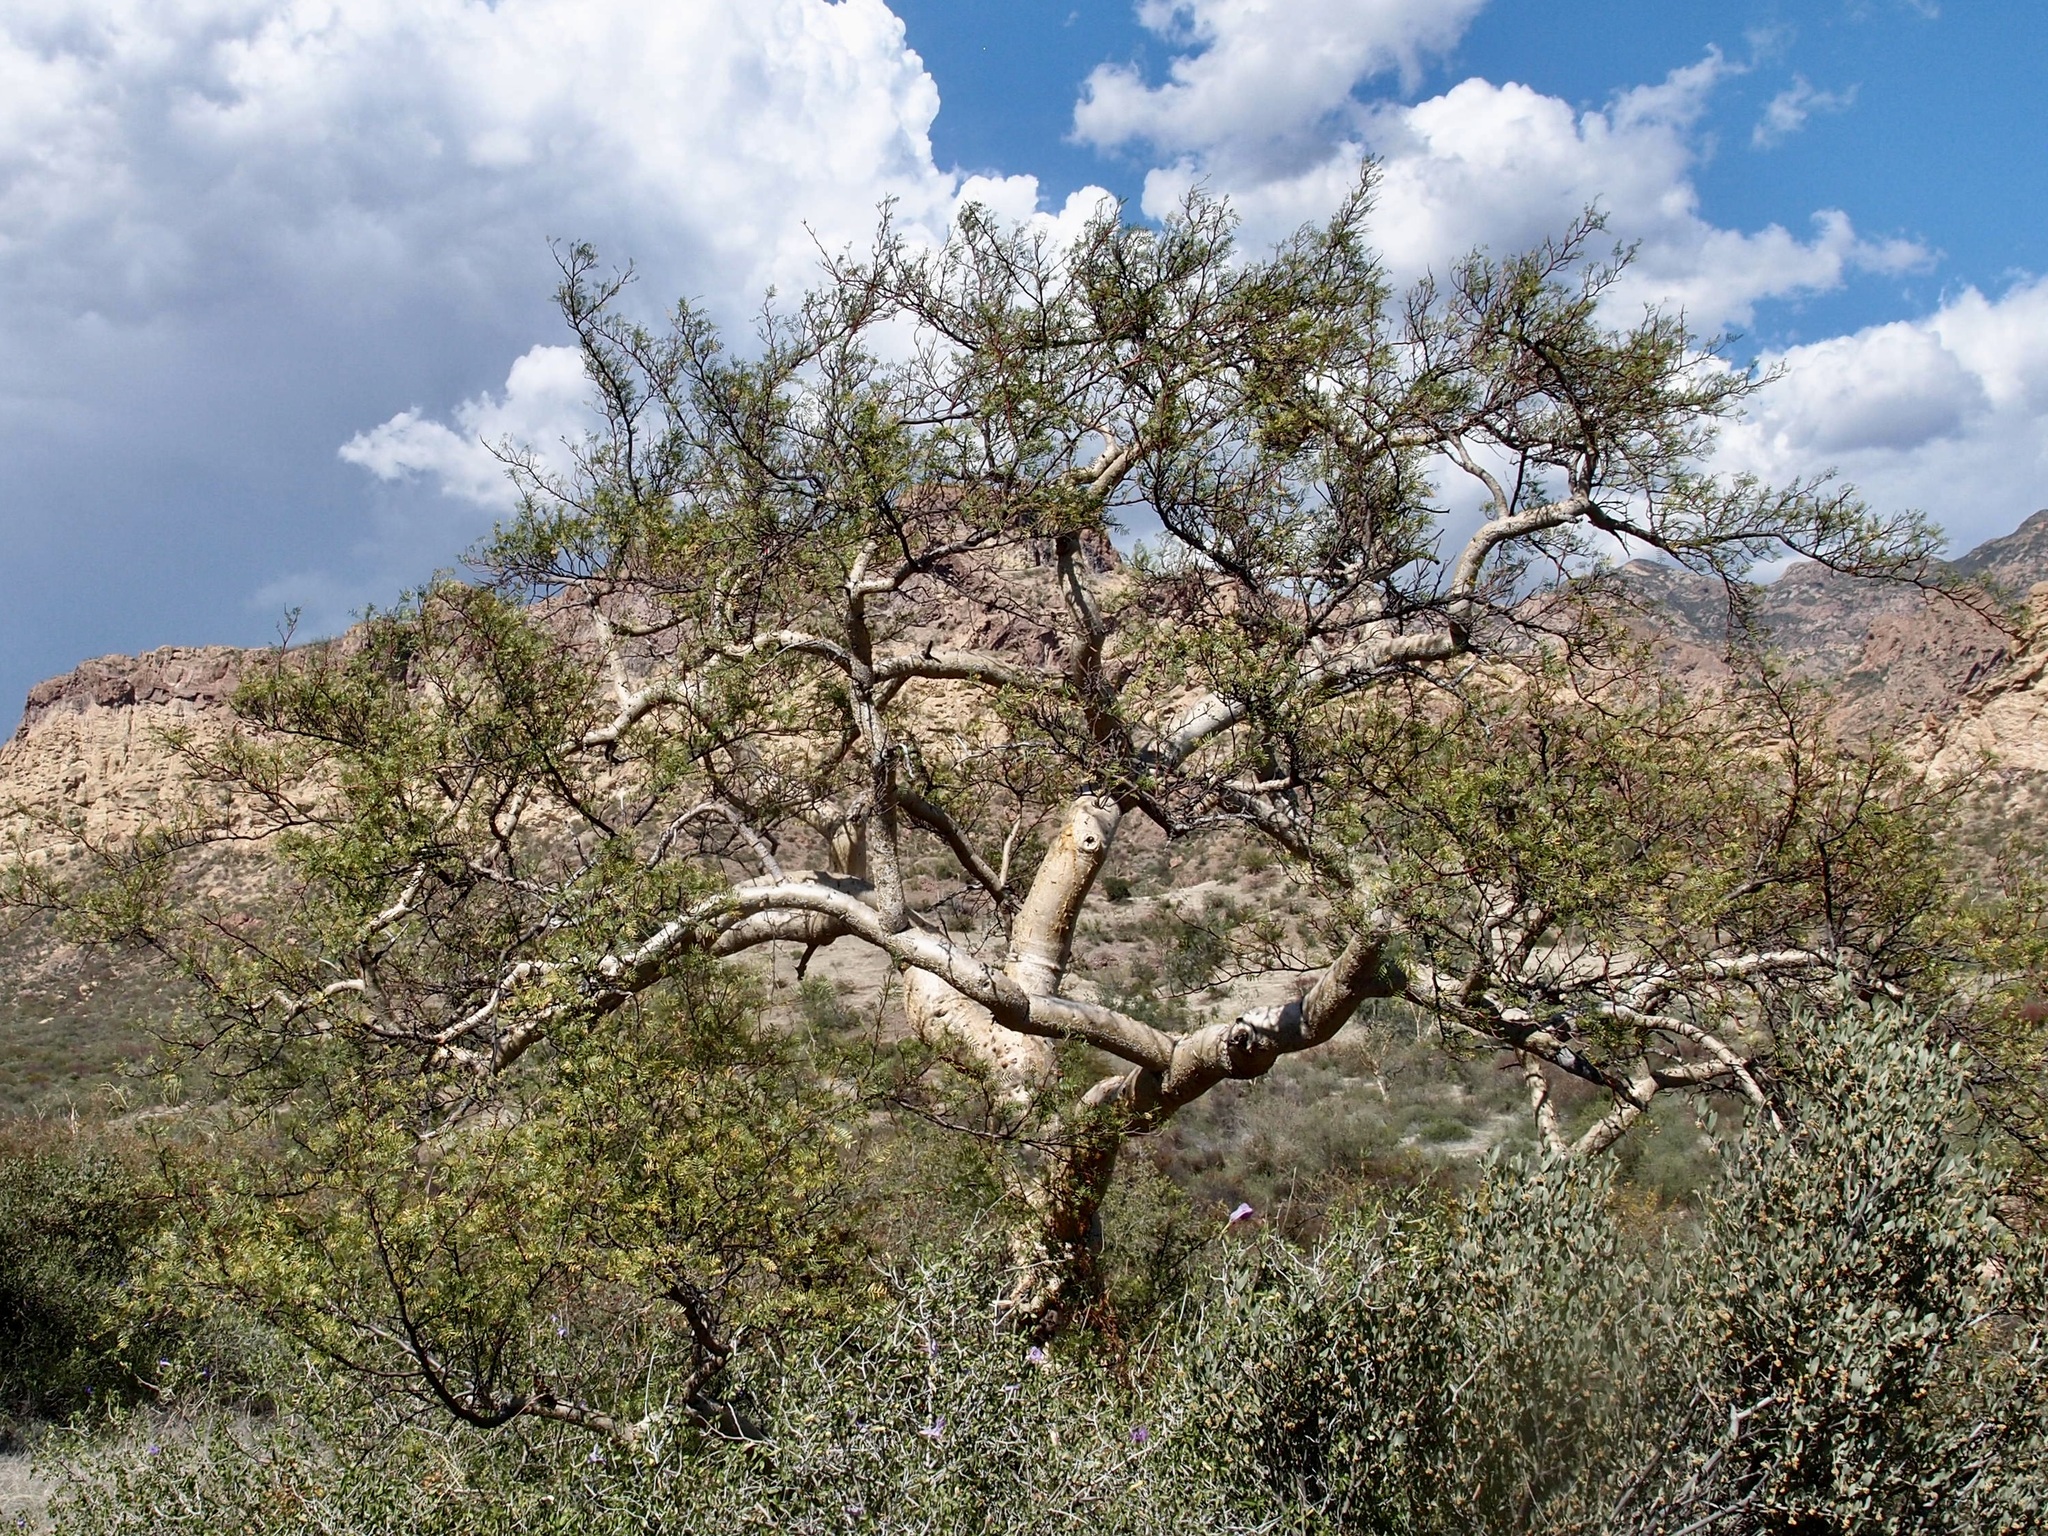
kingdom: Plantae
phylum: Tracheophyta
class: Magnoliopsida
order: Sapindales
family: Burseraceae
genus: Bursera
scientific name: Bursera microphylla
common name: Elephant tree
